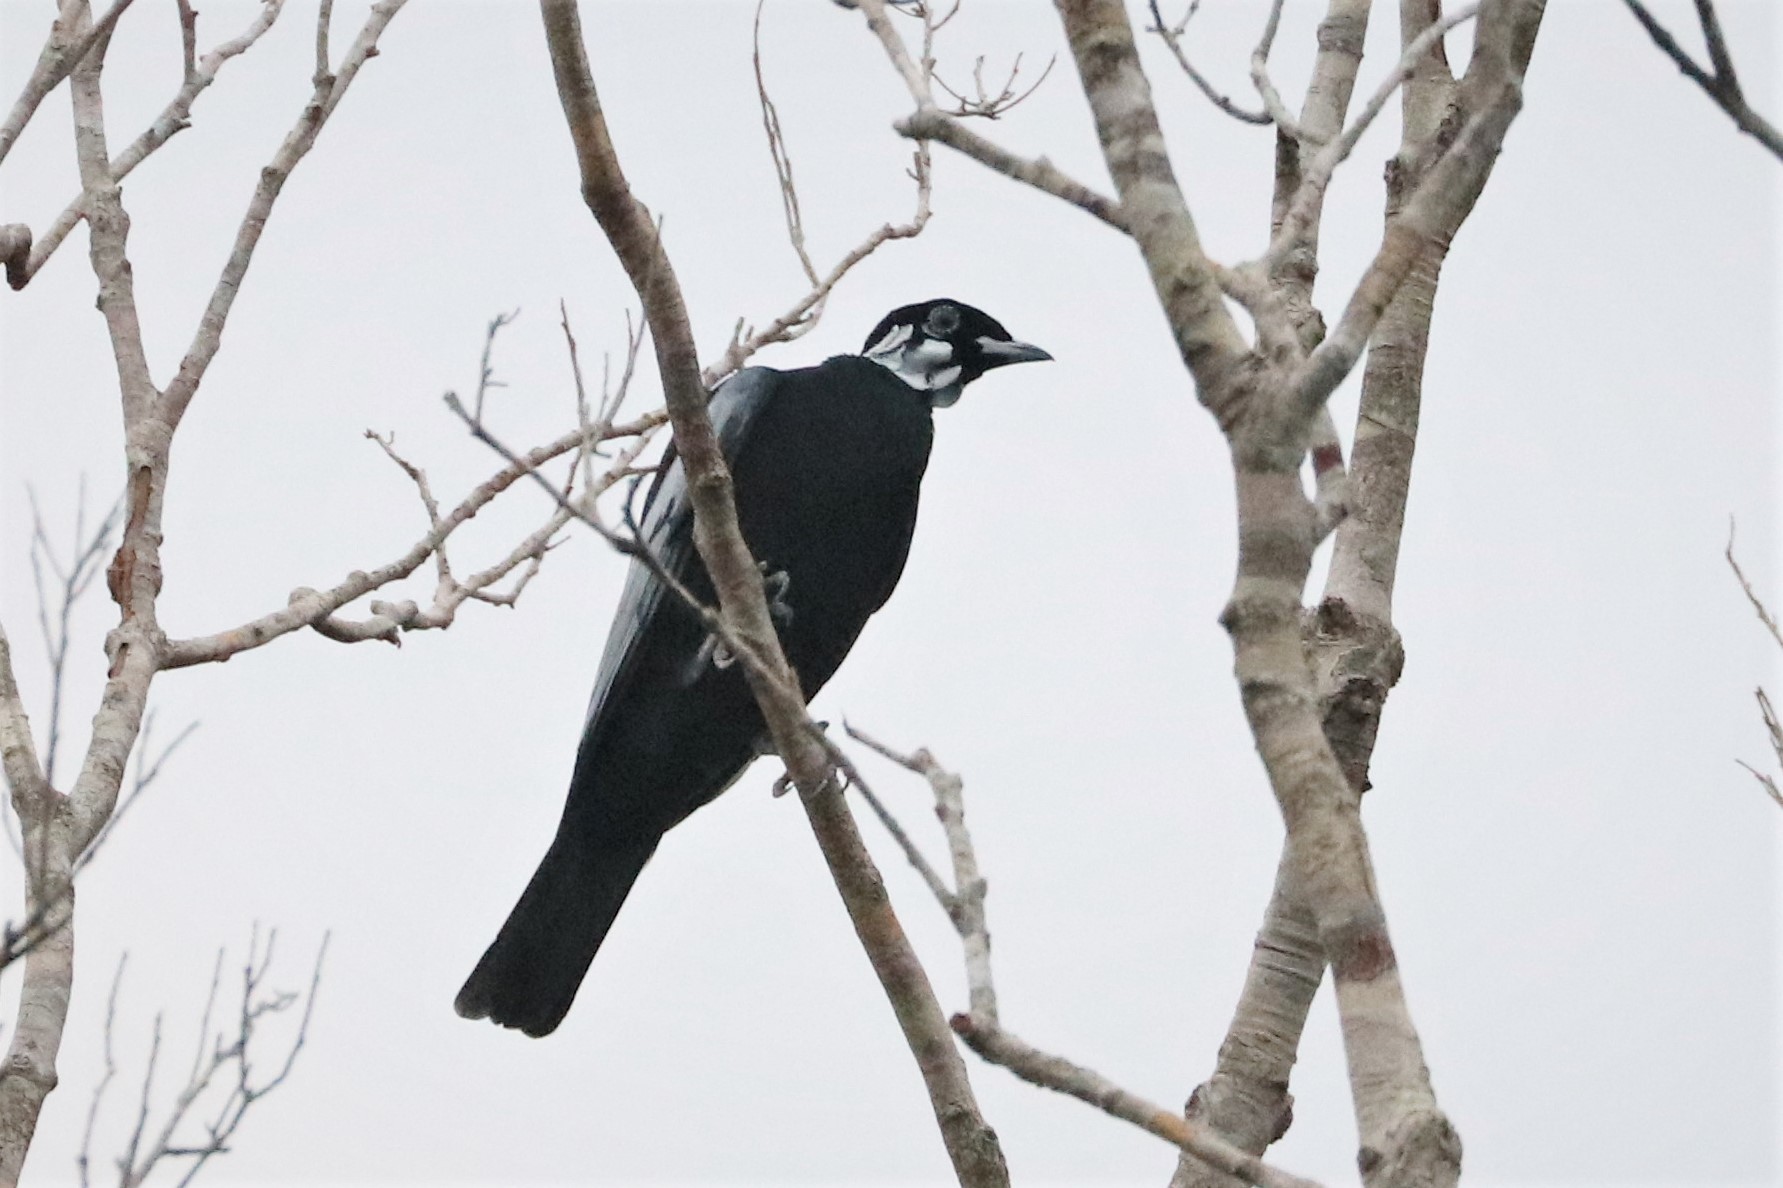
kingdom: Animalia
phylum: Chordata
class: Aves
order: Passeriformes
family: Cotingidae
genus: Gymnoderus
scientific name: Gymnoderus foetidus
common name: Bare-necked fruitcrow
